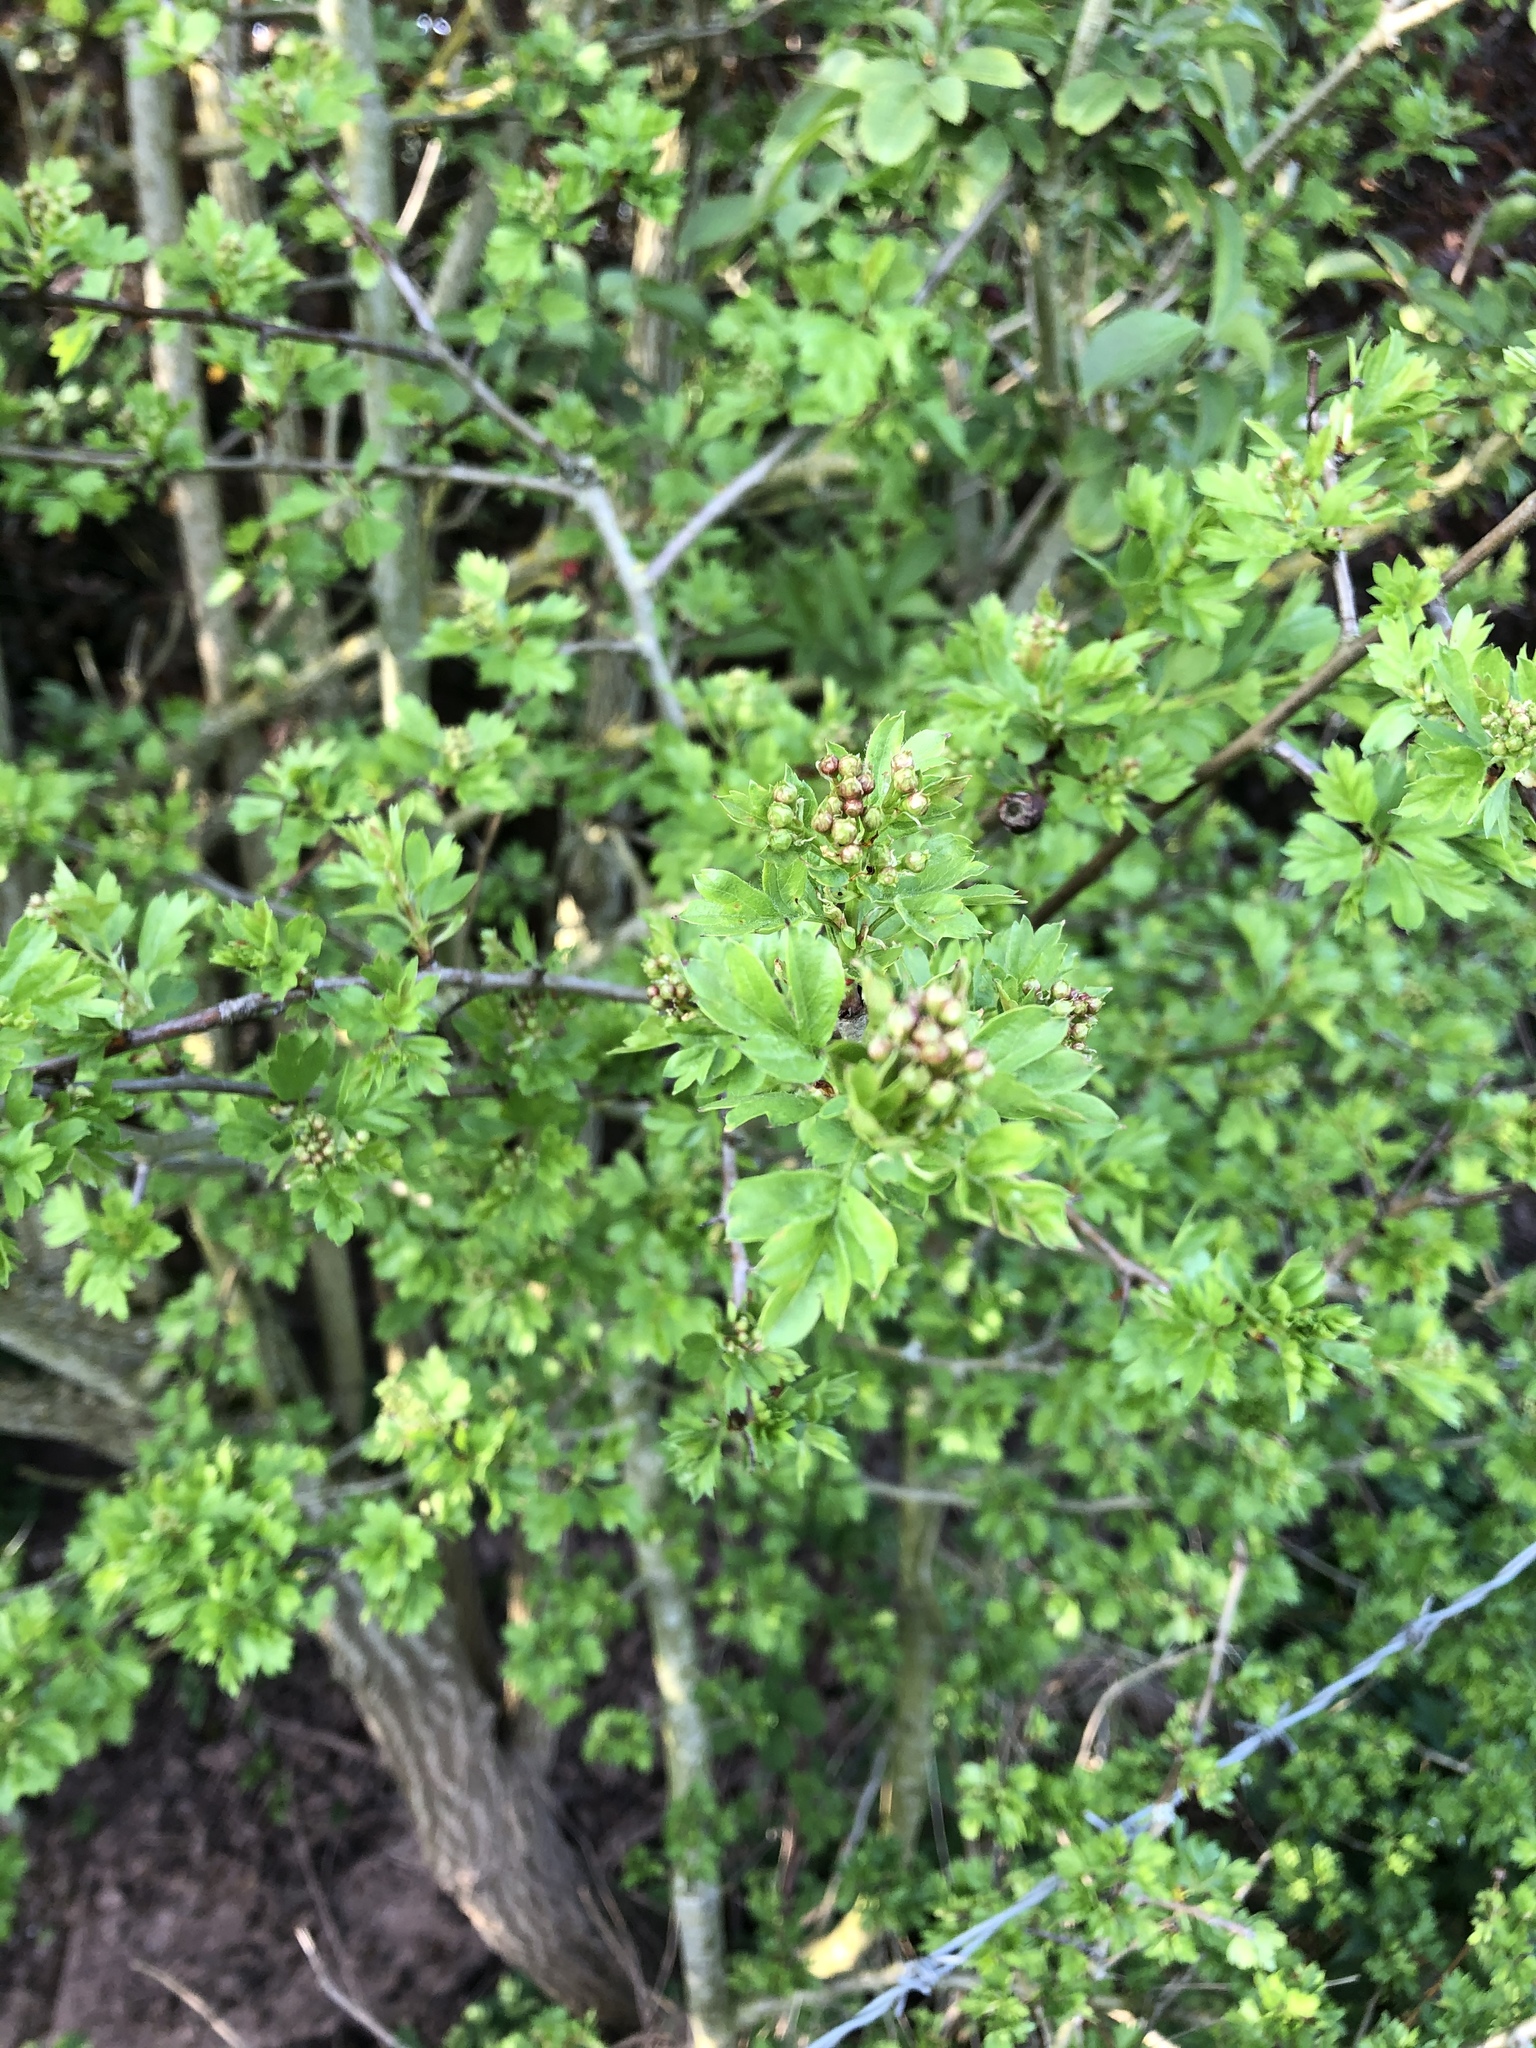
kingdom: Plantae
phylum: Tracheophyta
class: Magnoliopsida
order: Rosales
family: Rosaceae
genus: Crataegus
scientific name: Crataegus monogyna
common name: Hawthorn
